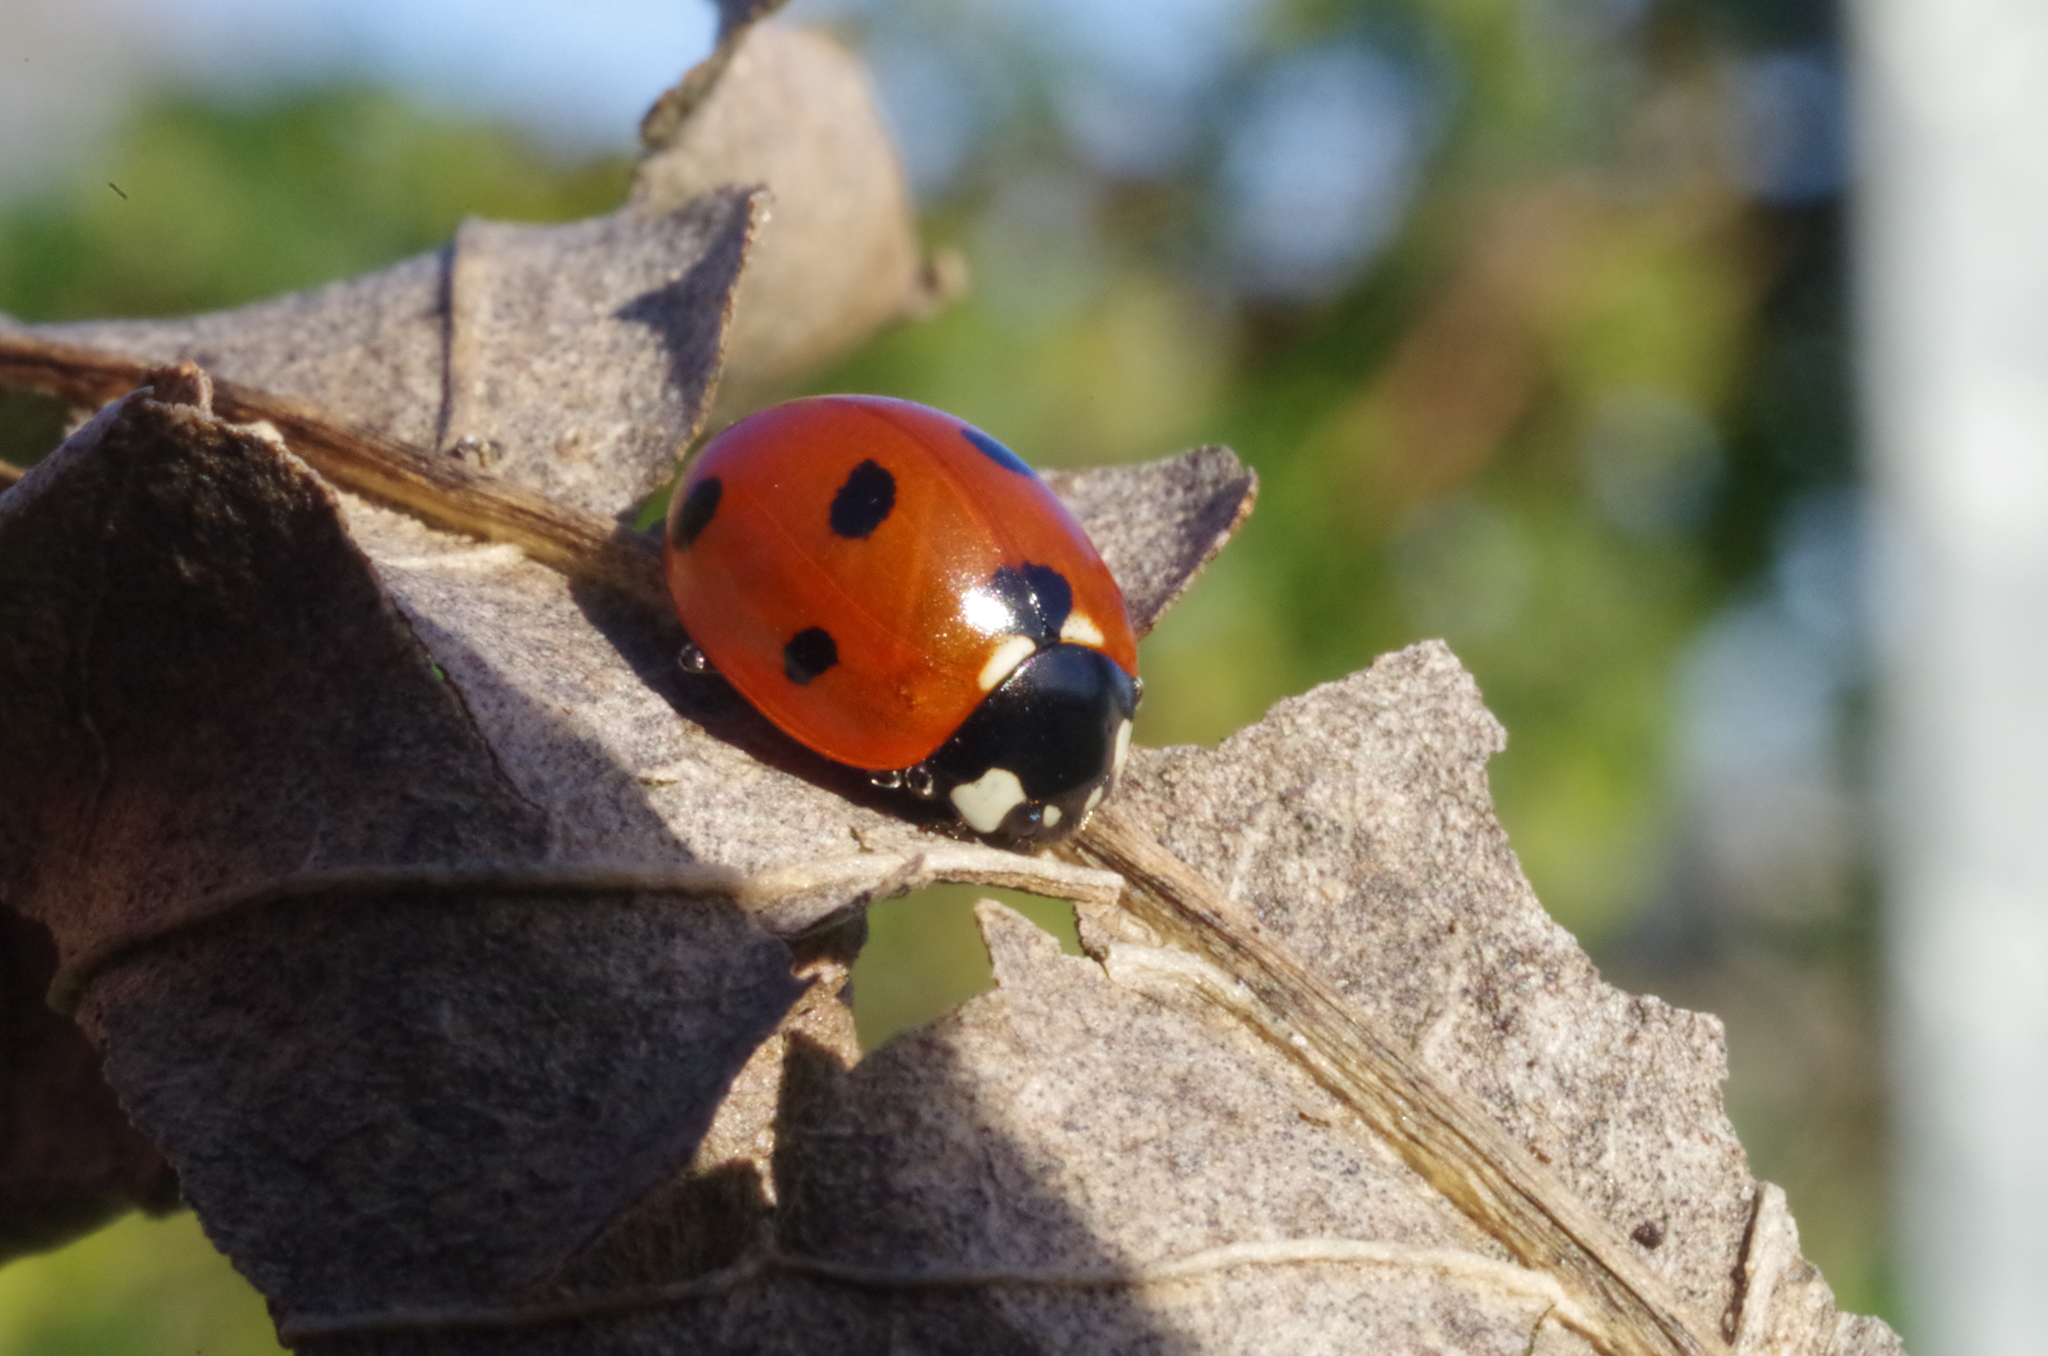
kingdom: Animalia
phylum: Arthropoda
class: Insecta
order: Coleoptera
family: Coccinellidae
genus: Coccinella
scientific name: Coccinella septempunctata
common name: Sevenspotted lady beetle
